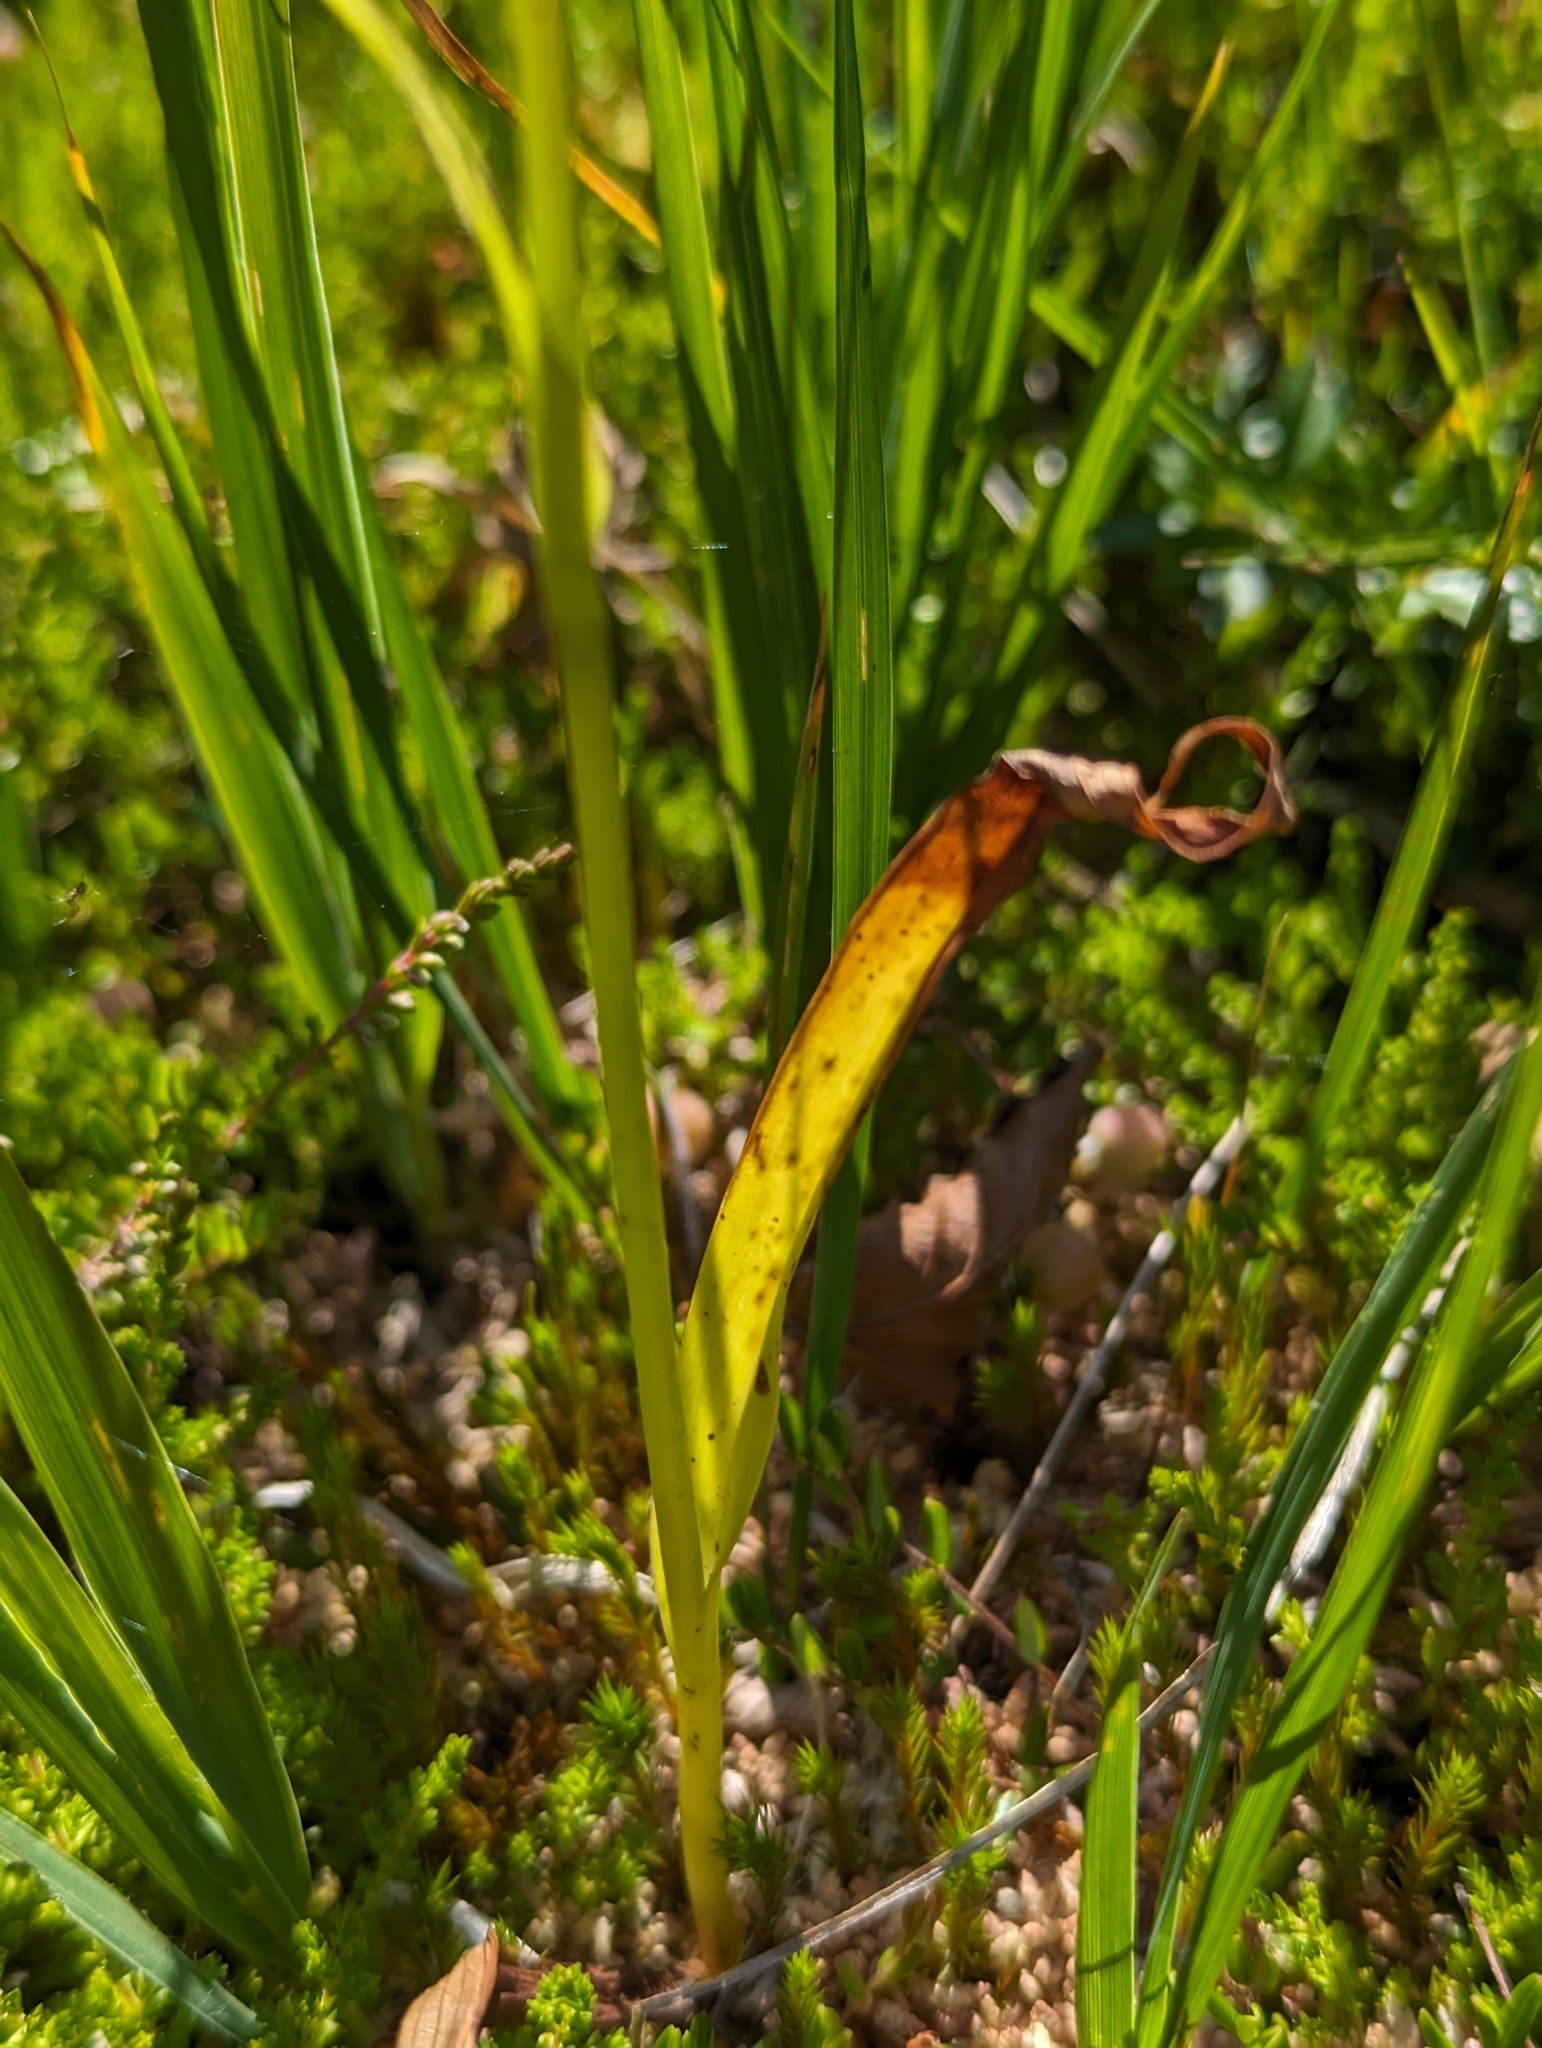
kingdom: Plantae
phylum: Tracheophyta
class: Liliopsida
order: Asparagales
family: Orchidaceae
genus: Dactylorhiza
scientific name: Dactylorhiza maculata
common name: Heath spotted-orchid
